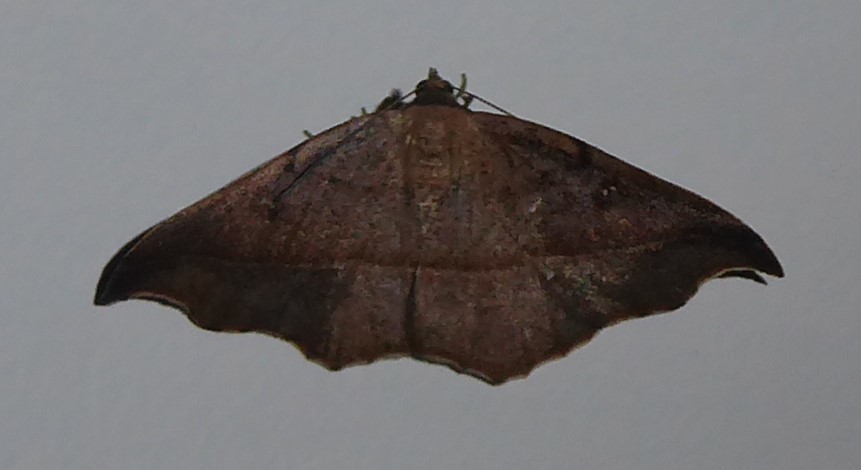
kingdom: Animalia
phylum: Arthropoda
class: Insecta
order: Lepidoptera
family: Geometridae
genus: Sarisa
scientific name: Sarisa muriferata
